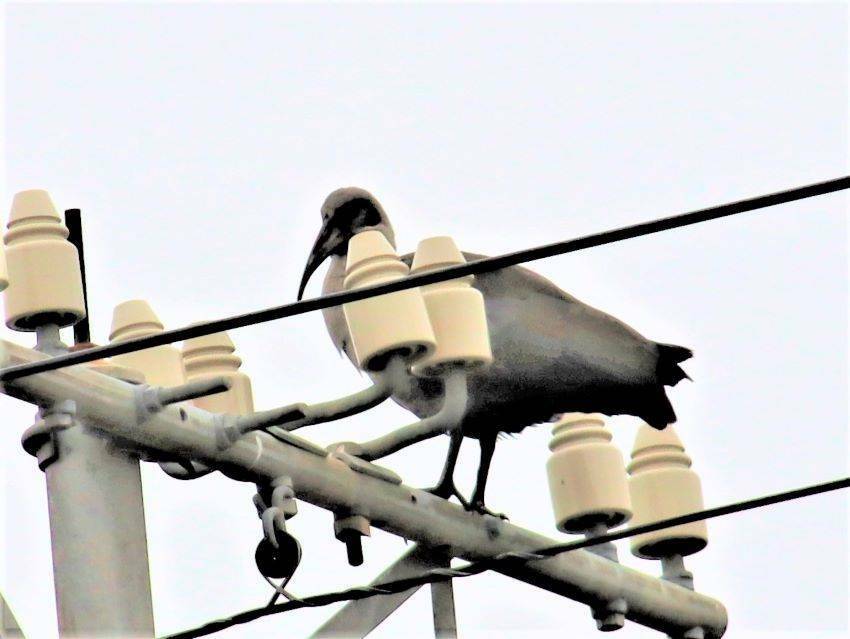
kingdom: Animalia
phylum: Chordata
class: Aves
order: Pelecaniformes
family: Threskiornithidae
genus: Bostrychia
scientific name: Bostrychia hagedash
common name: Hadada ibis
